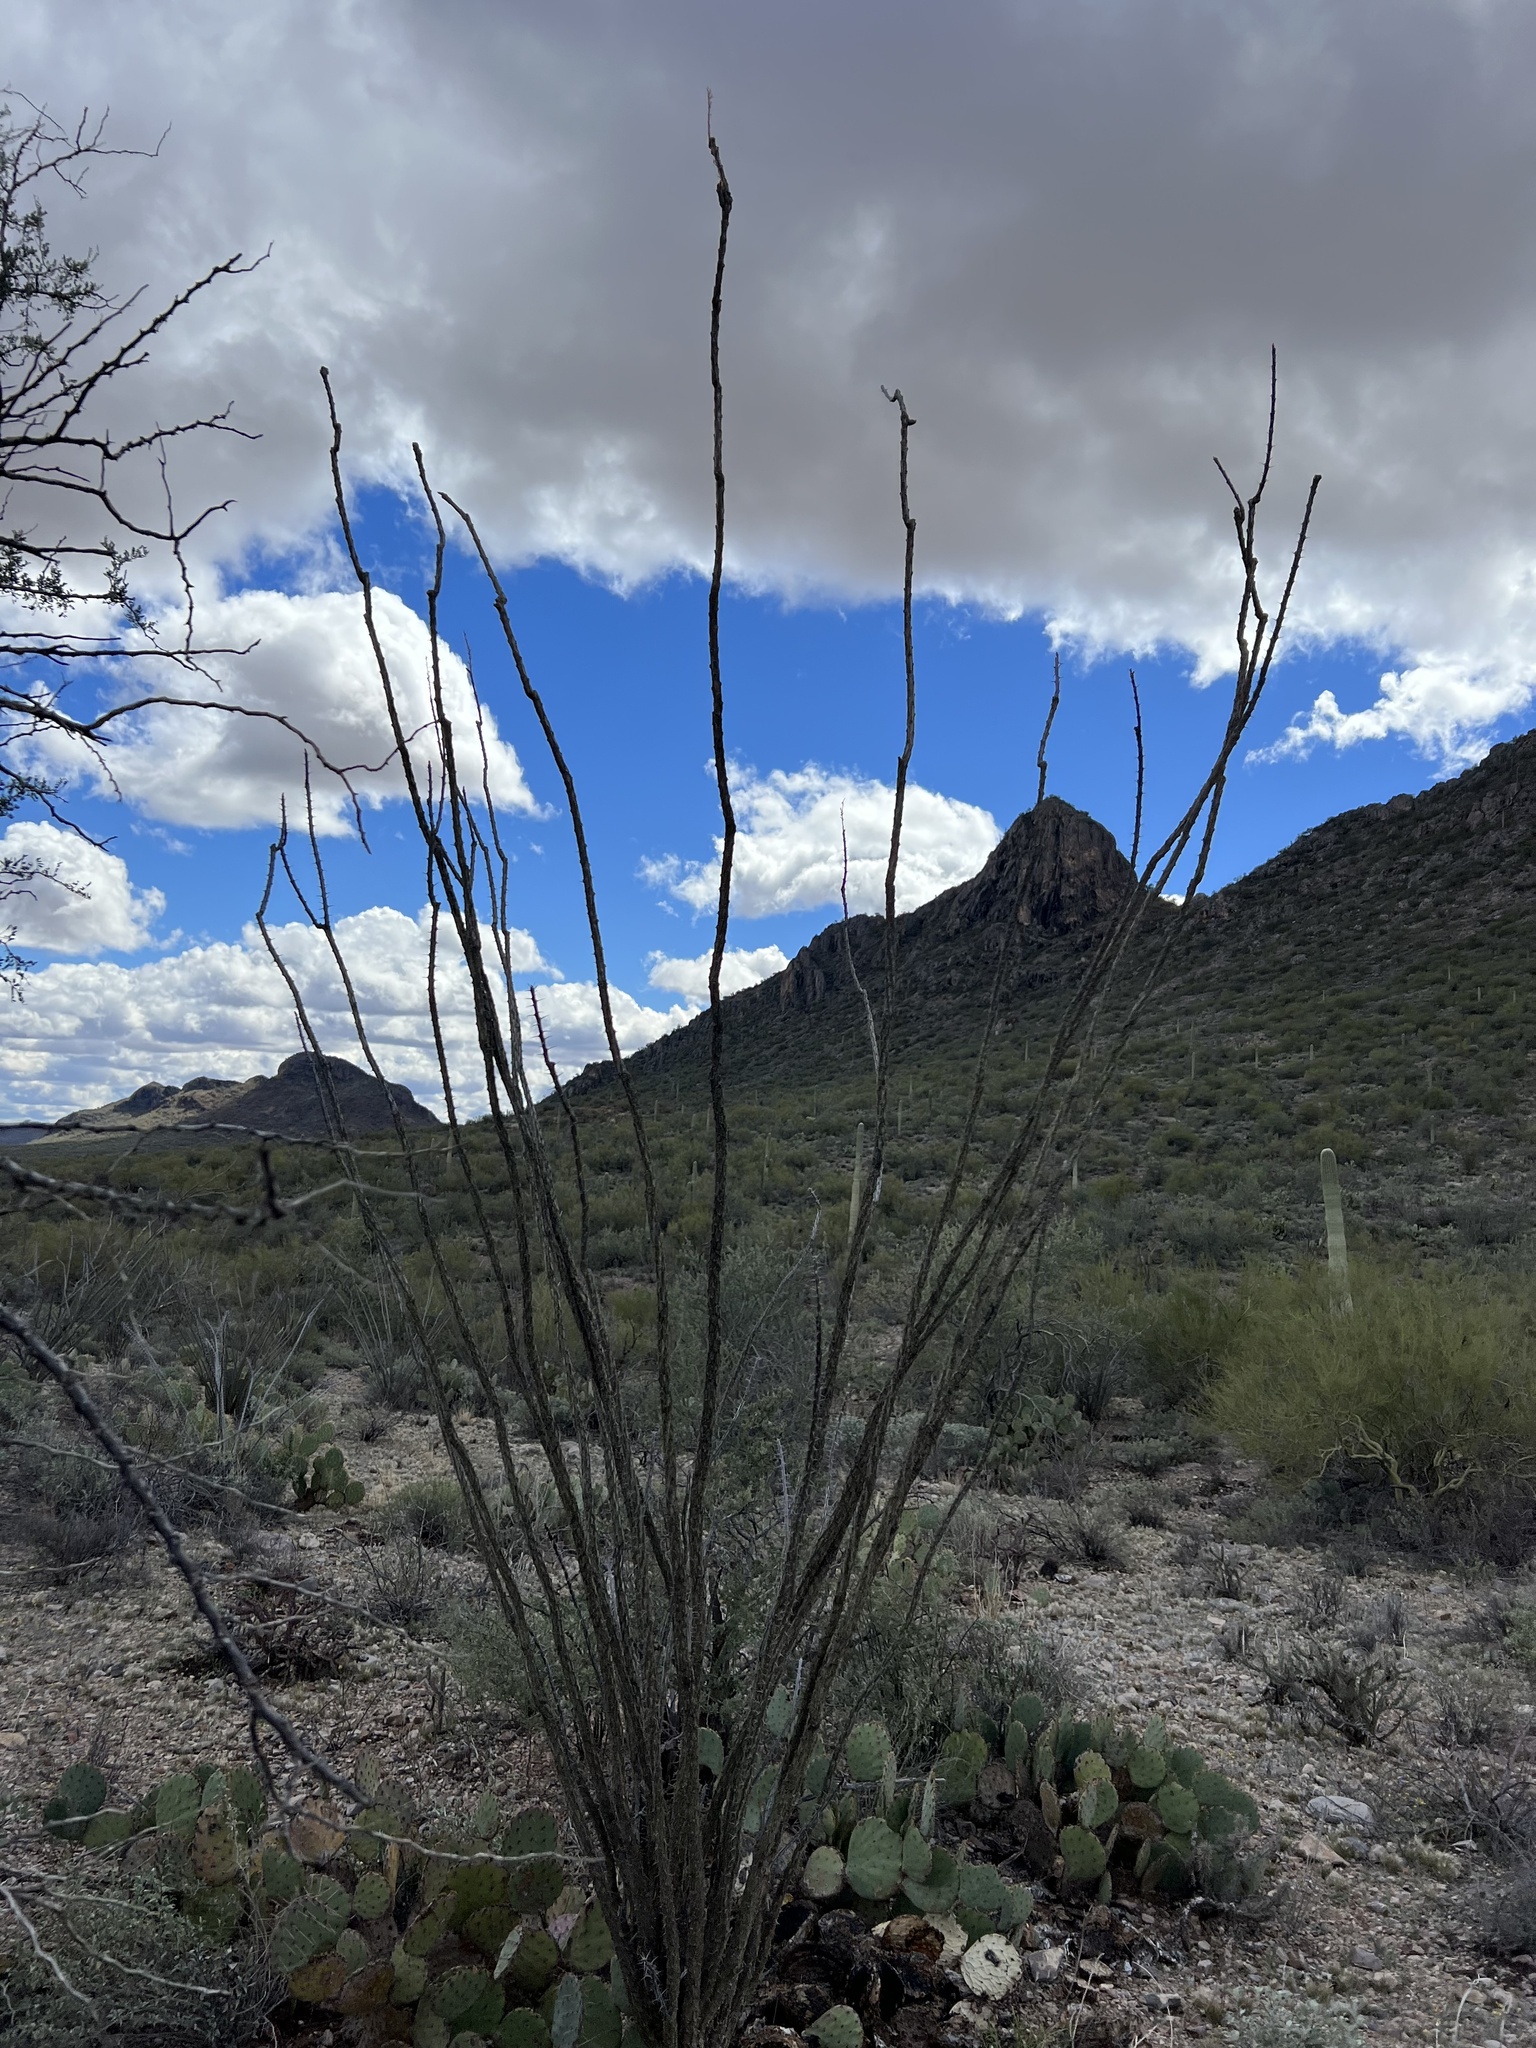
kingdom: Plantae
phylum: Tracheophyta
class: Magnoliopsida
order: Ericales
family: Fouquieriaceae
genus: Fouquieria
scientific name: Fouquieria splendens
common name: Vine-cactus
